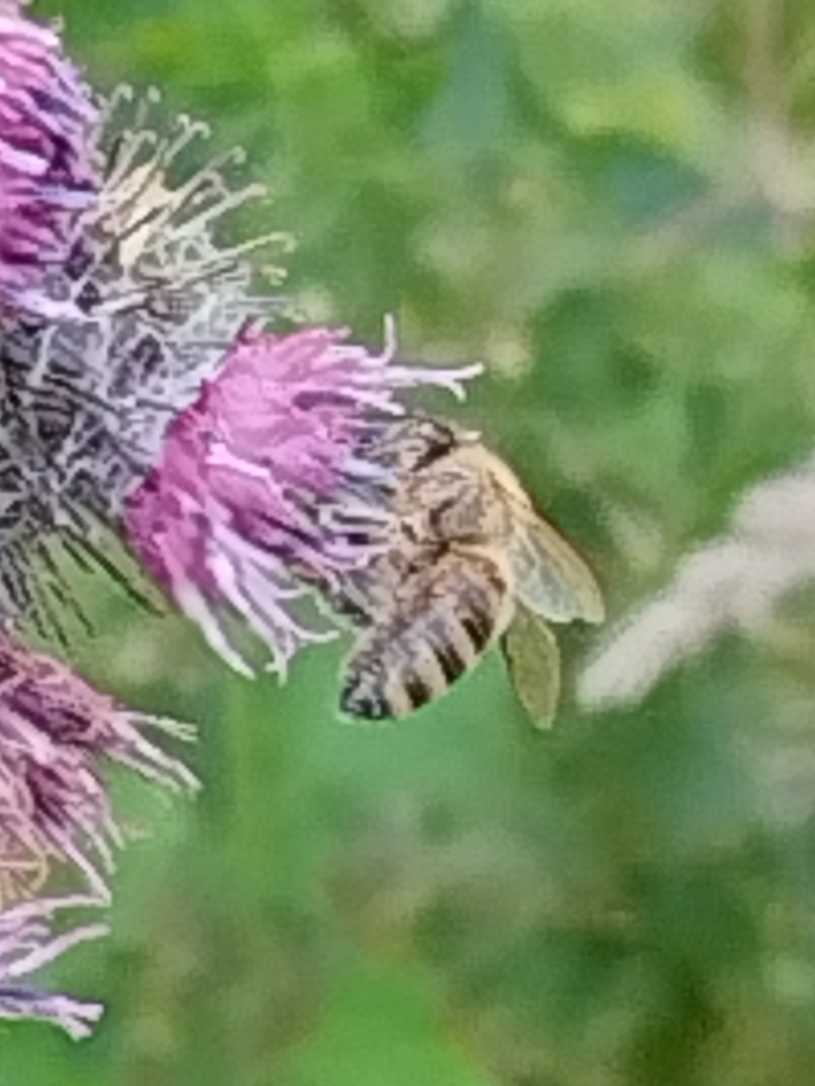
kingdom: Animalia
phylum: Arthropoda
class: Insecta
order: Hymenoptera
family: Apidae
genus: Apis
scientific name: Apis mellifera
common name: Honey bee
